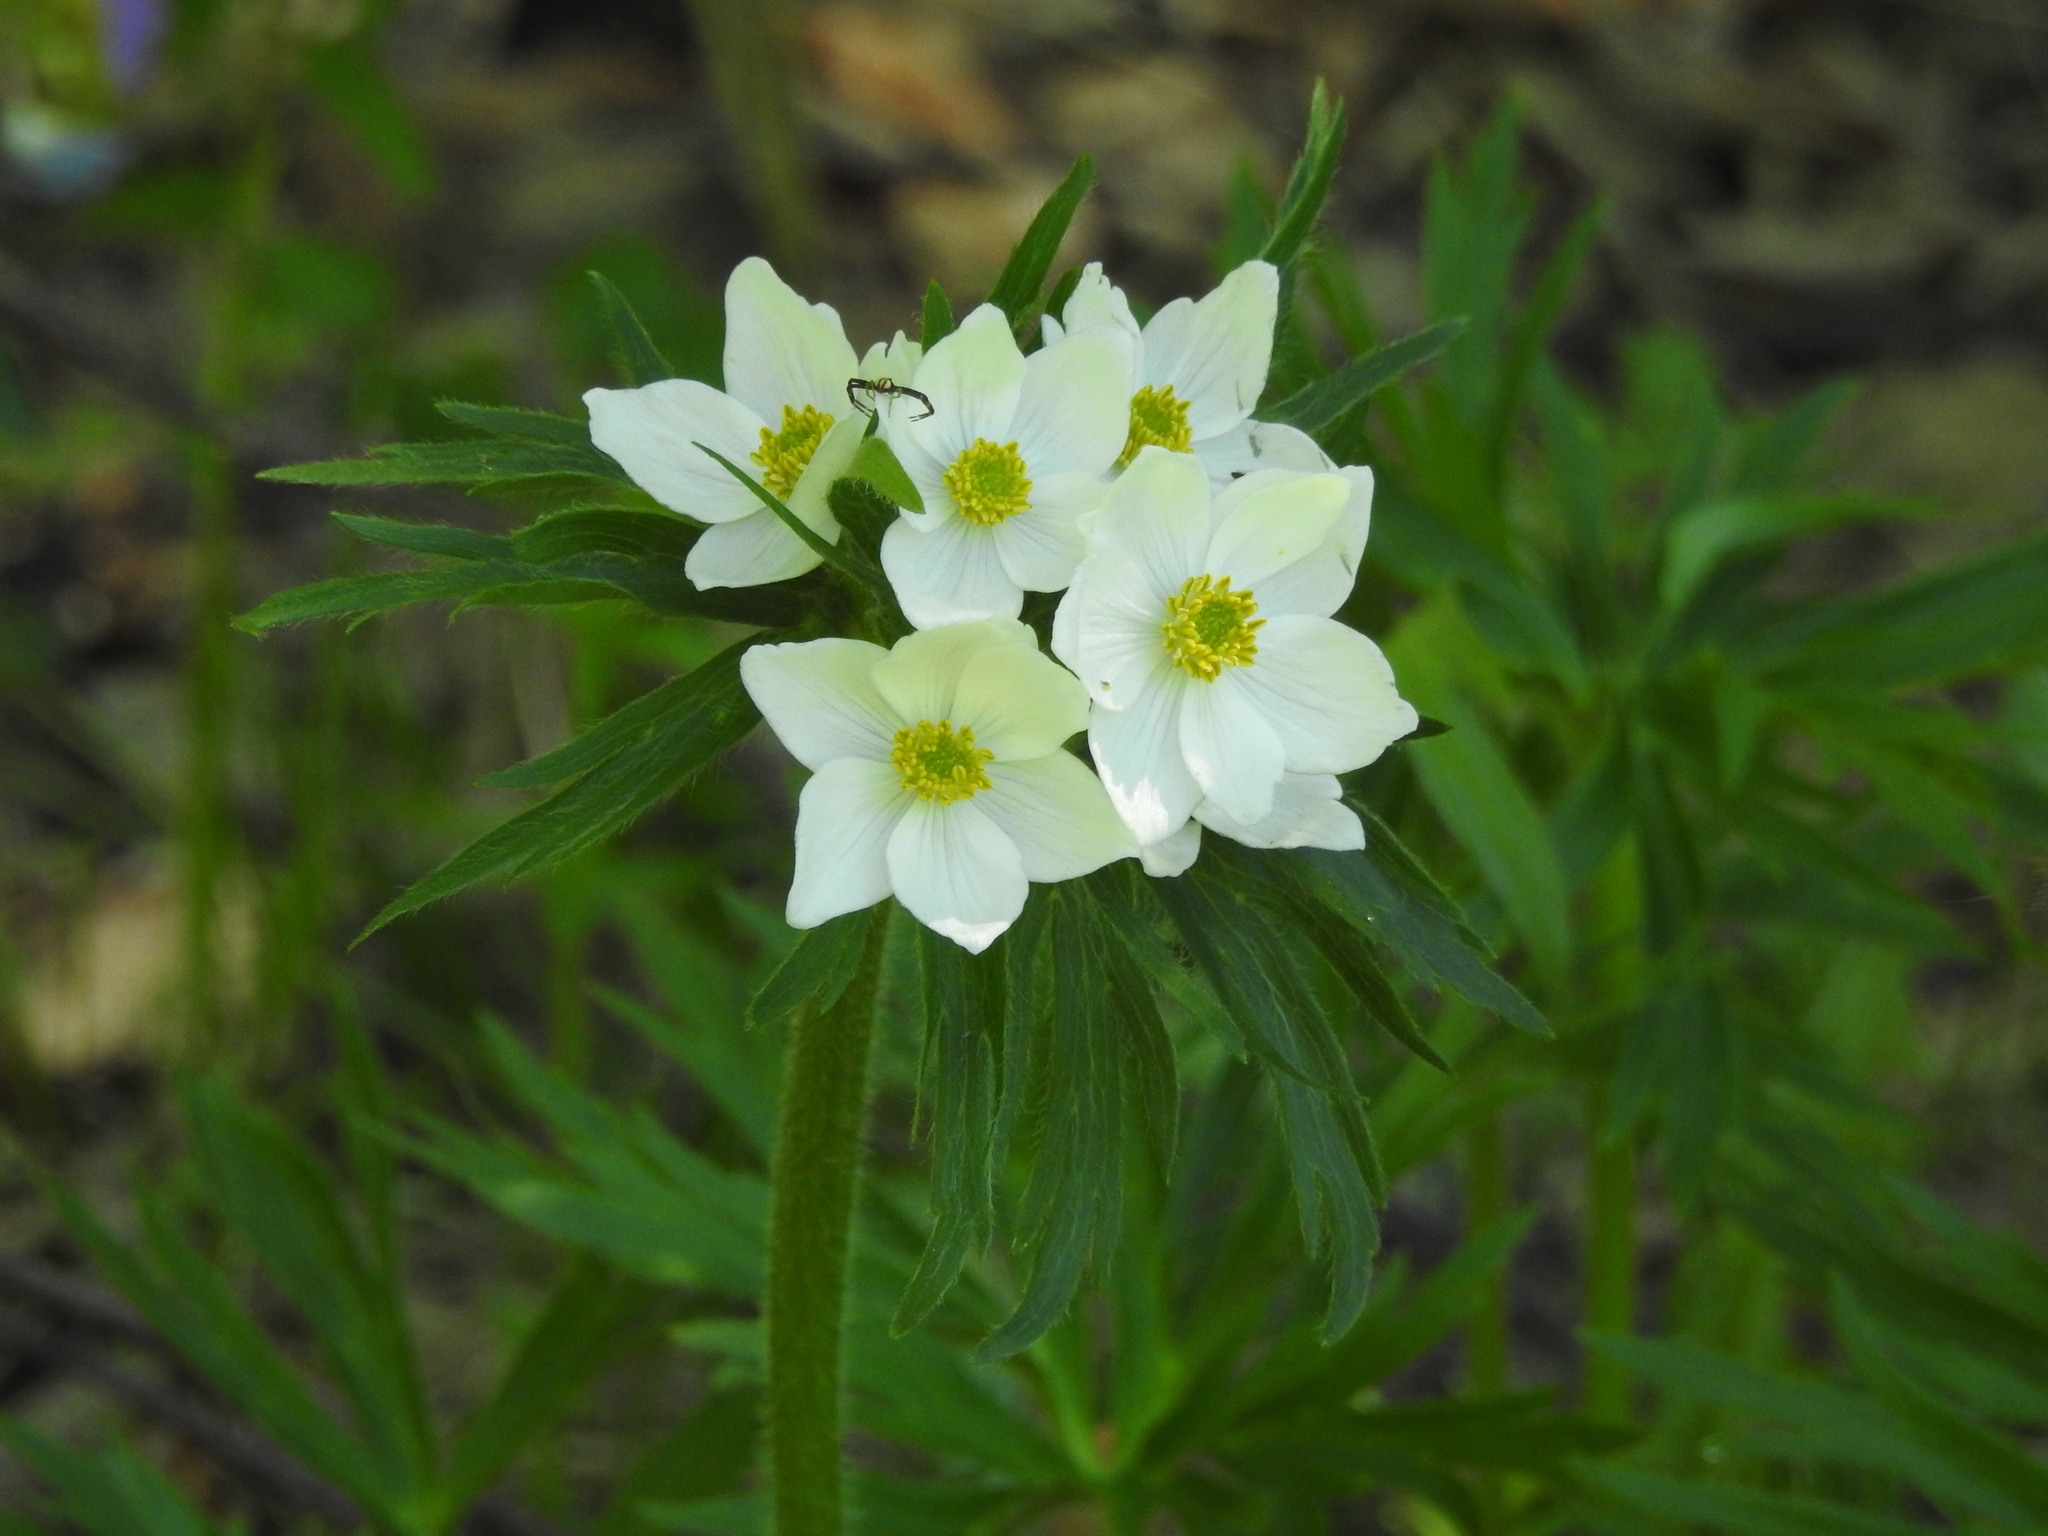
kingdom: Plantae
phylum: Tracheophyta
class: Magnoliopsida
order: Ranunculales
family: Ranunculaceae
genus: Anemonastrum
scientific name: Anemonastrum narcissiflorum
